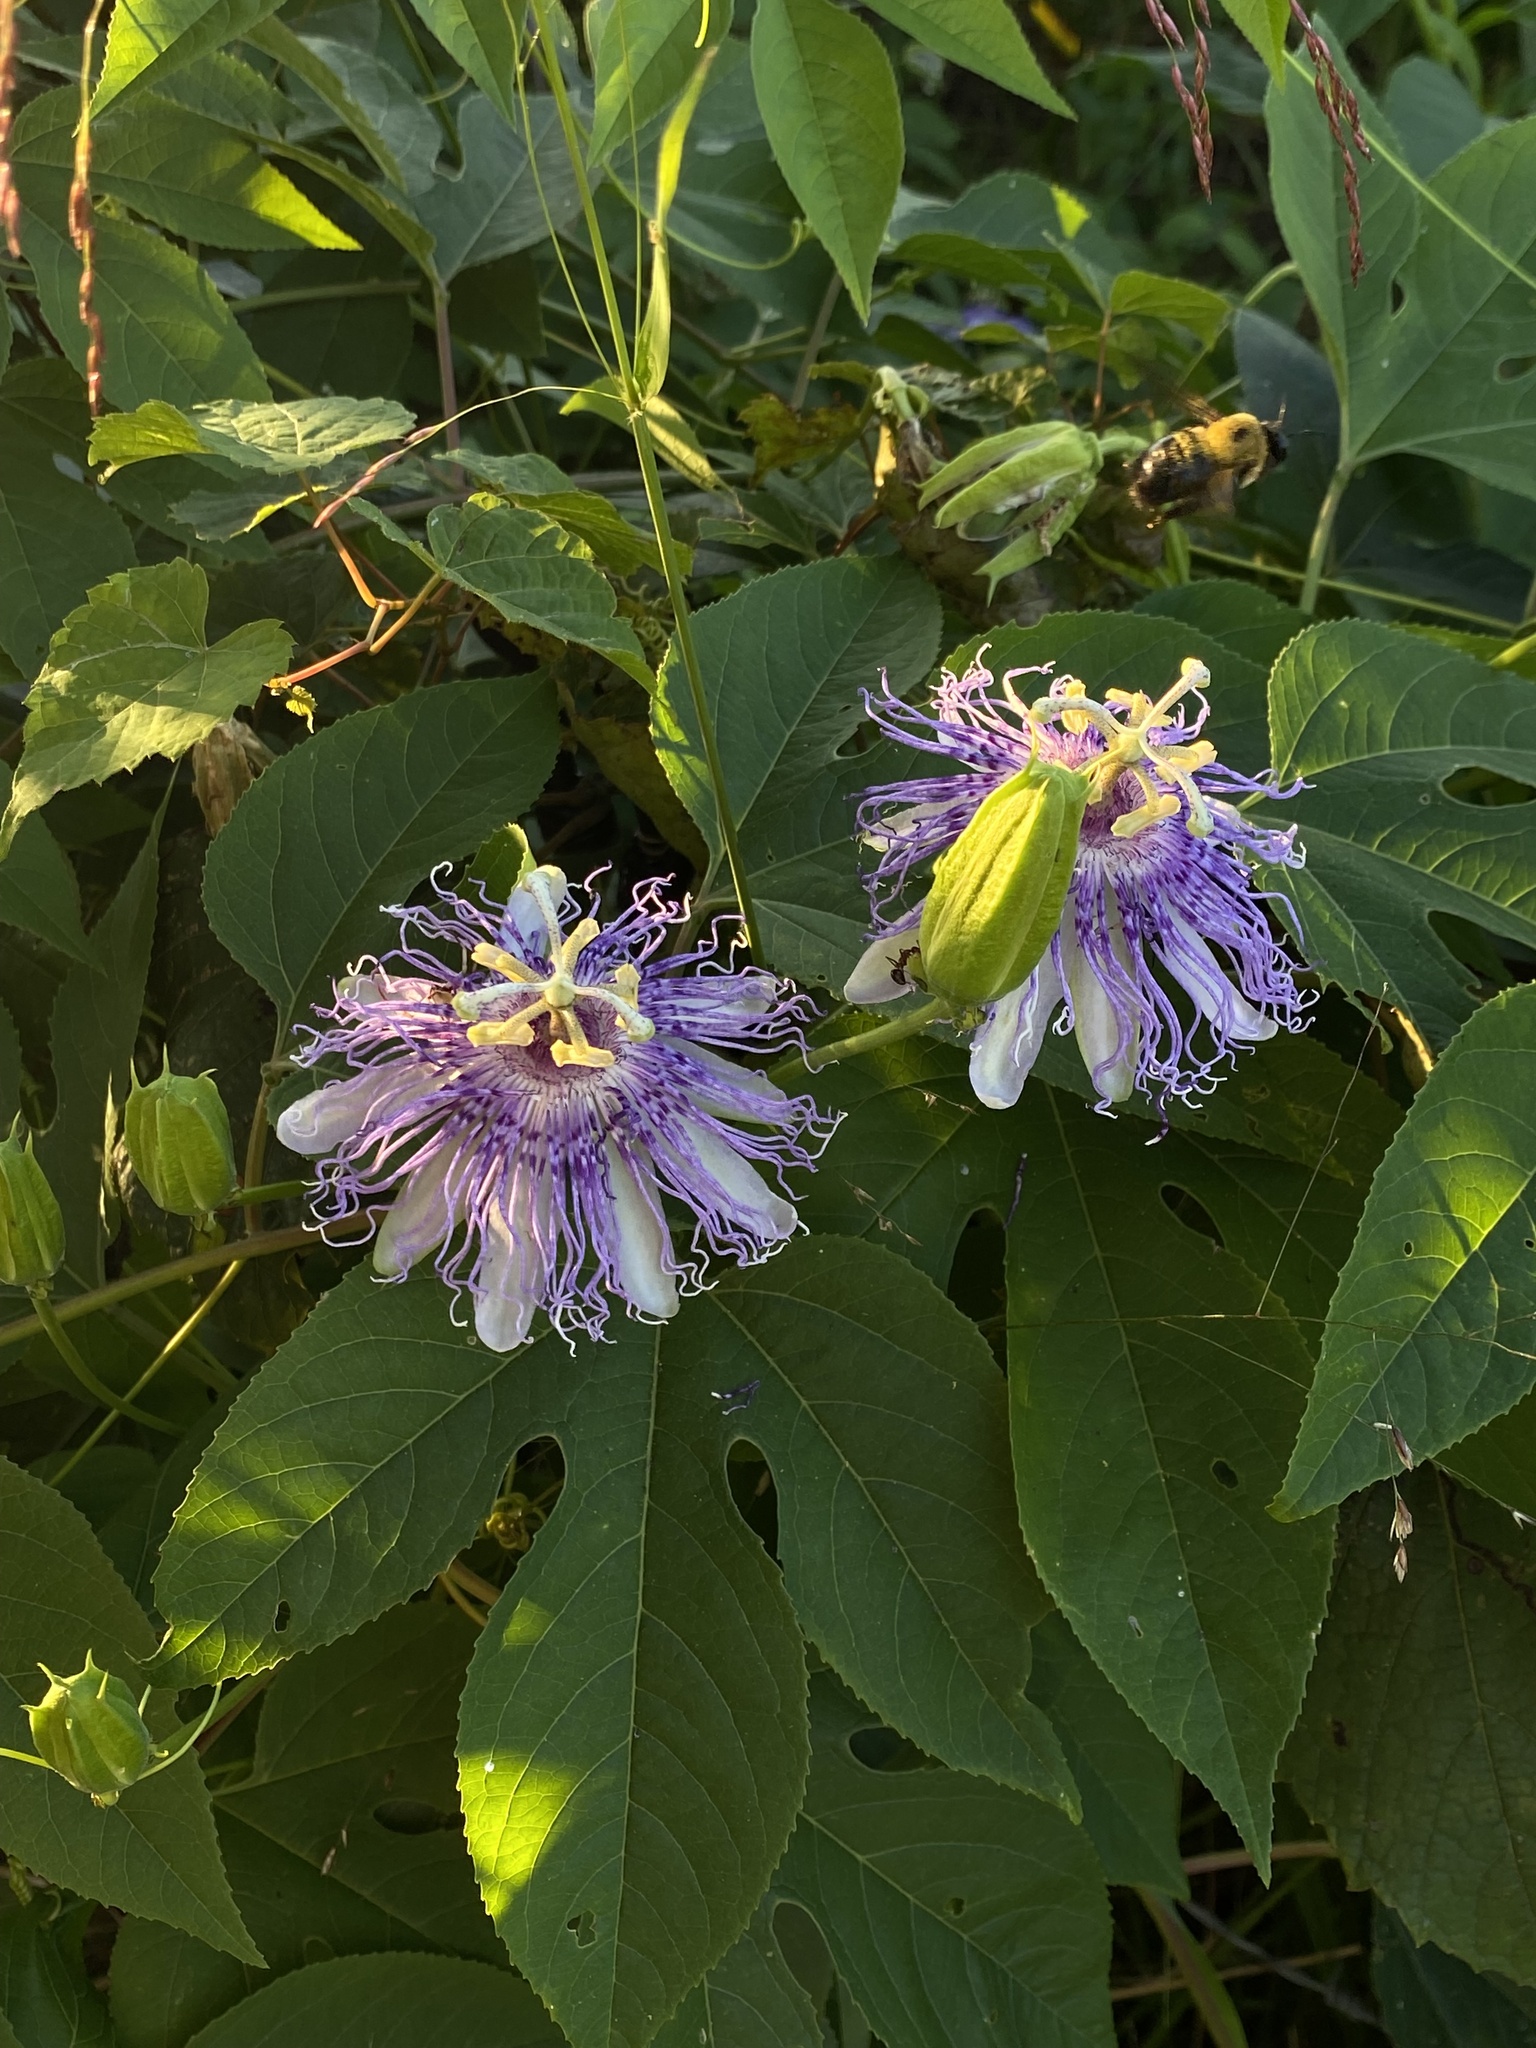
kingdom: Plantae
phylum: Tracheophyta
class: Magnoliopsida
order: Malpighiales
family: Passifloraceae
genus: Passiflora
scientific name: Passiflora incarnata
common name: Apricot-vine
